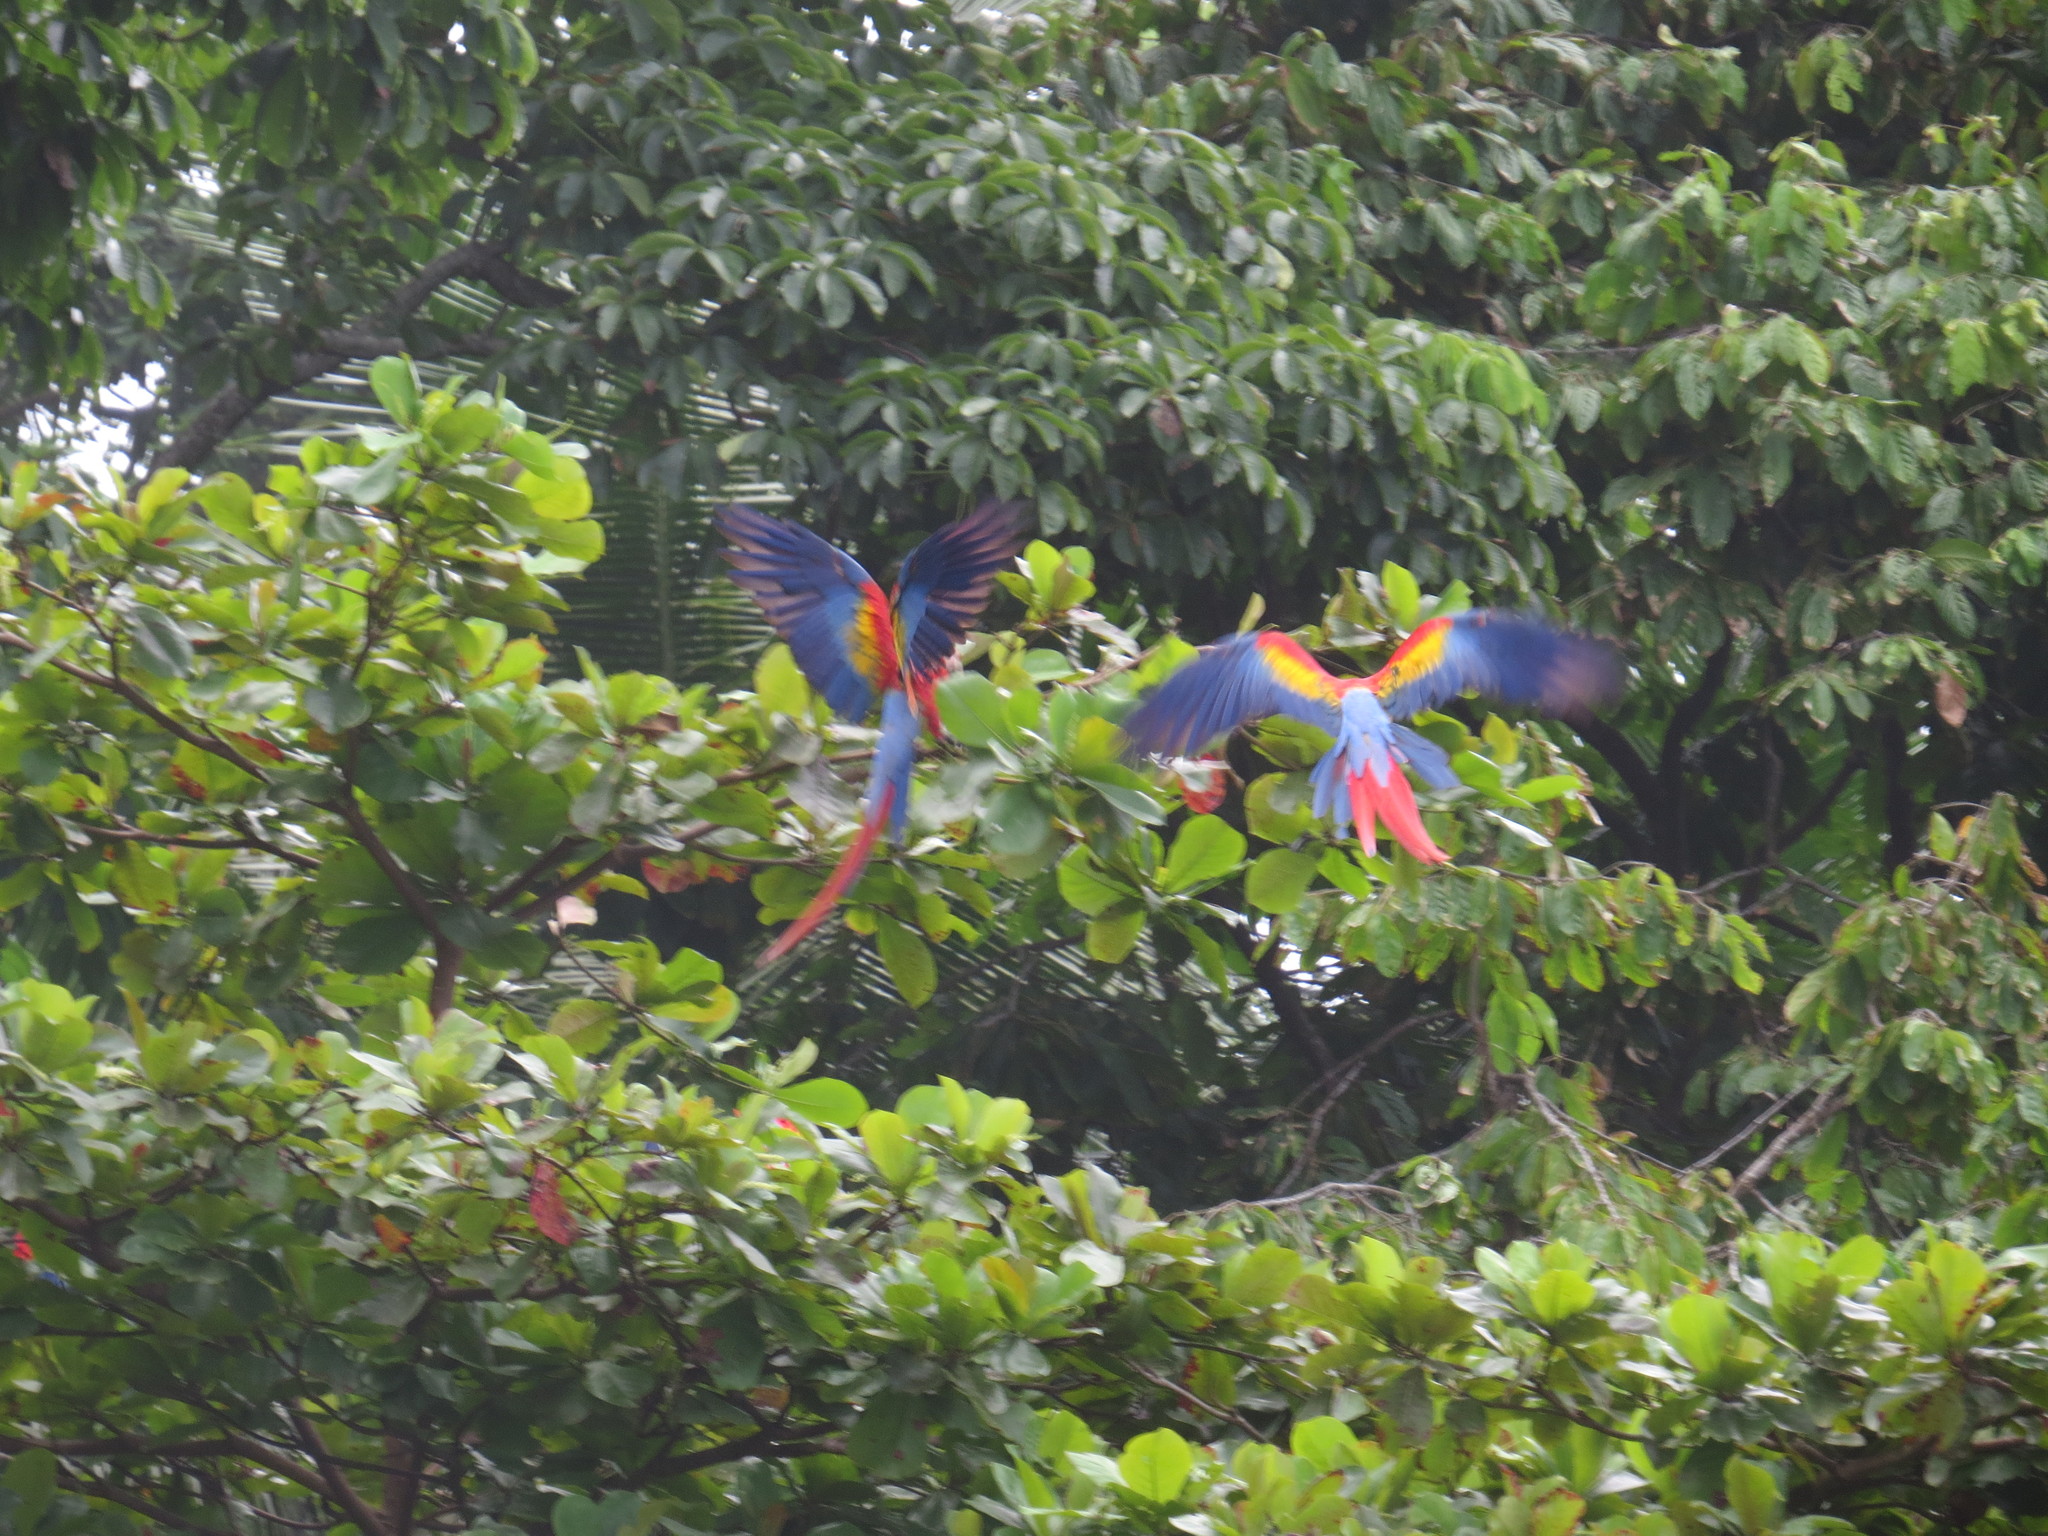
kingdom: Animalia
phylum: Chordata
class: Aves
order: Psittaciformes
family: Psittacidae
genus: Ara
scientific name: Ara macao
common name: Scarlet macaw
